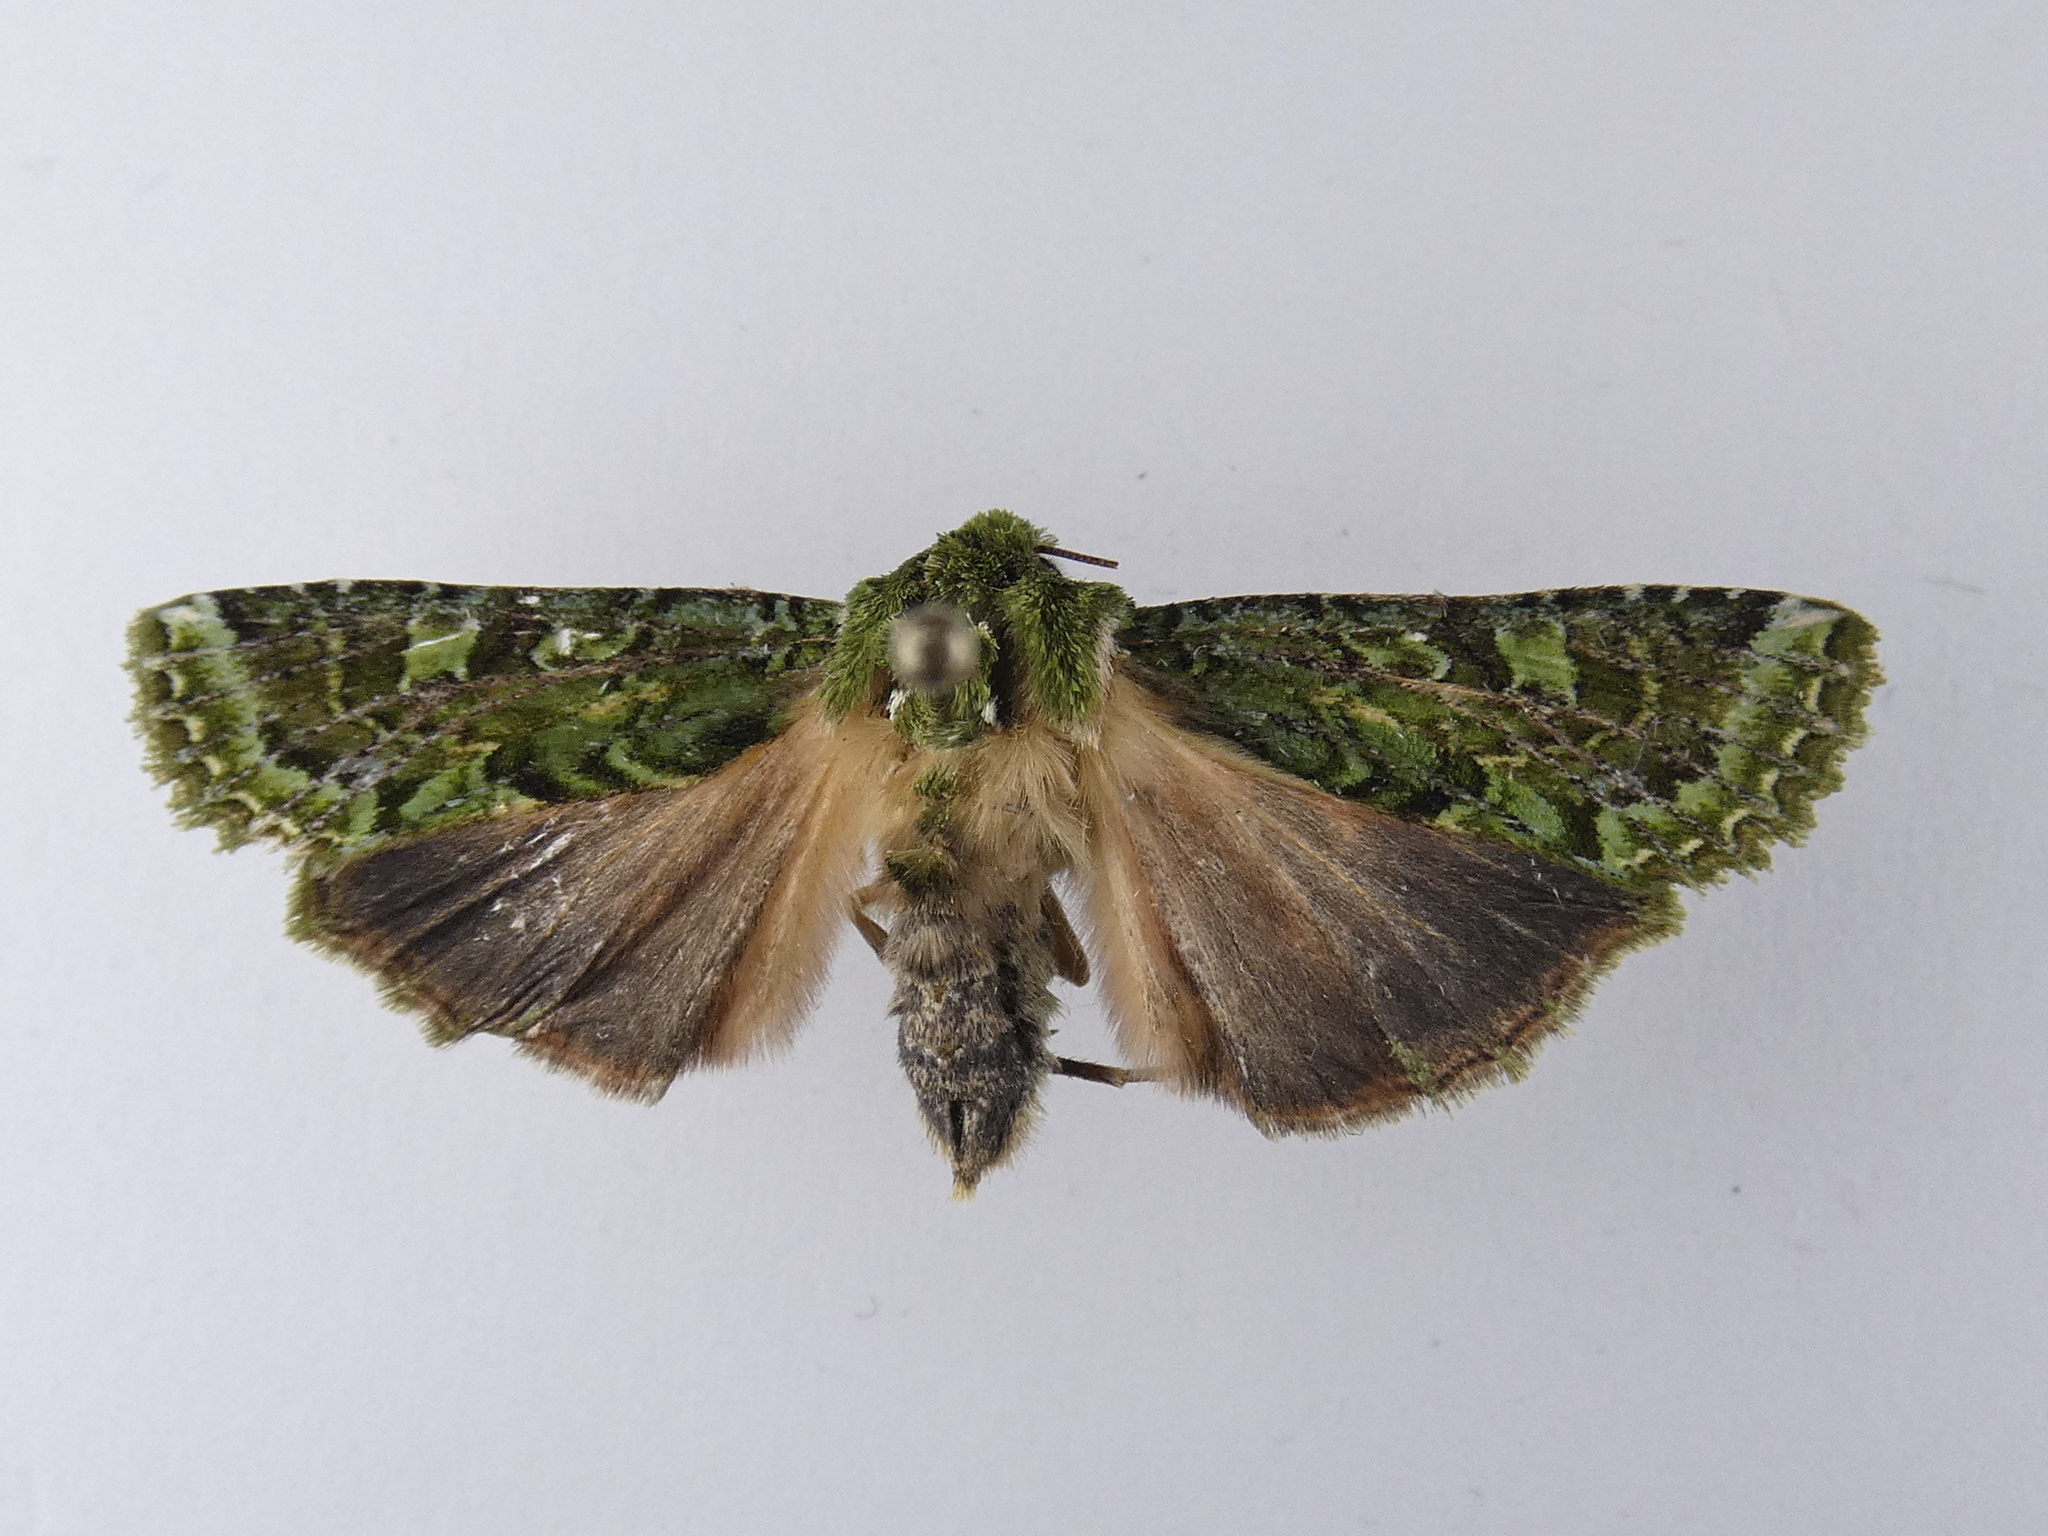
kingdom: Animalia
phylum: Arthropoda
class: Insecta
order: Lepidoptera
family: Noctuidae
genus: Feredayia
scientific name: Feredayia grammosa
